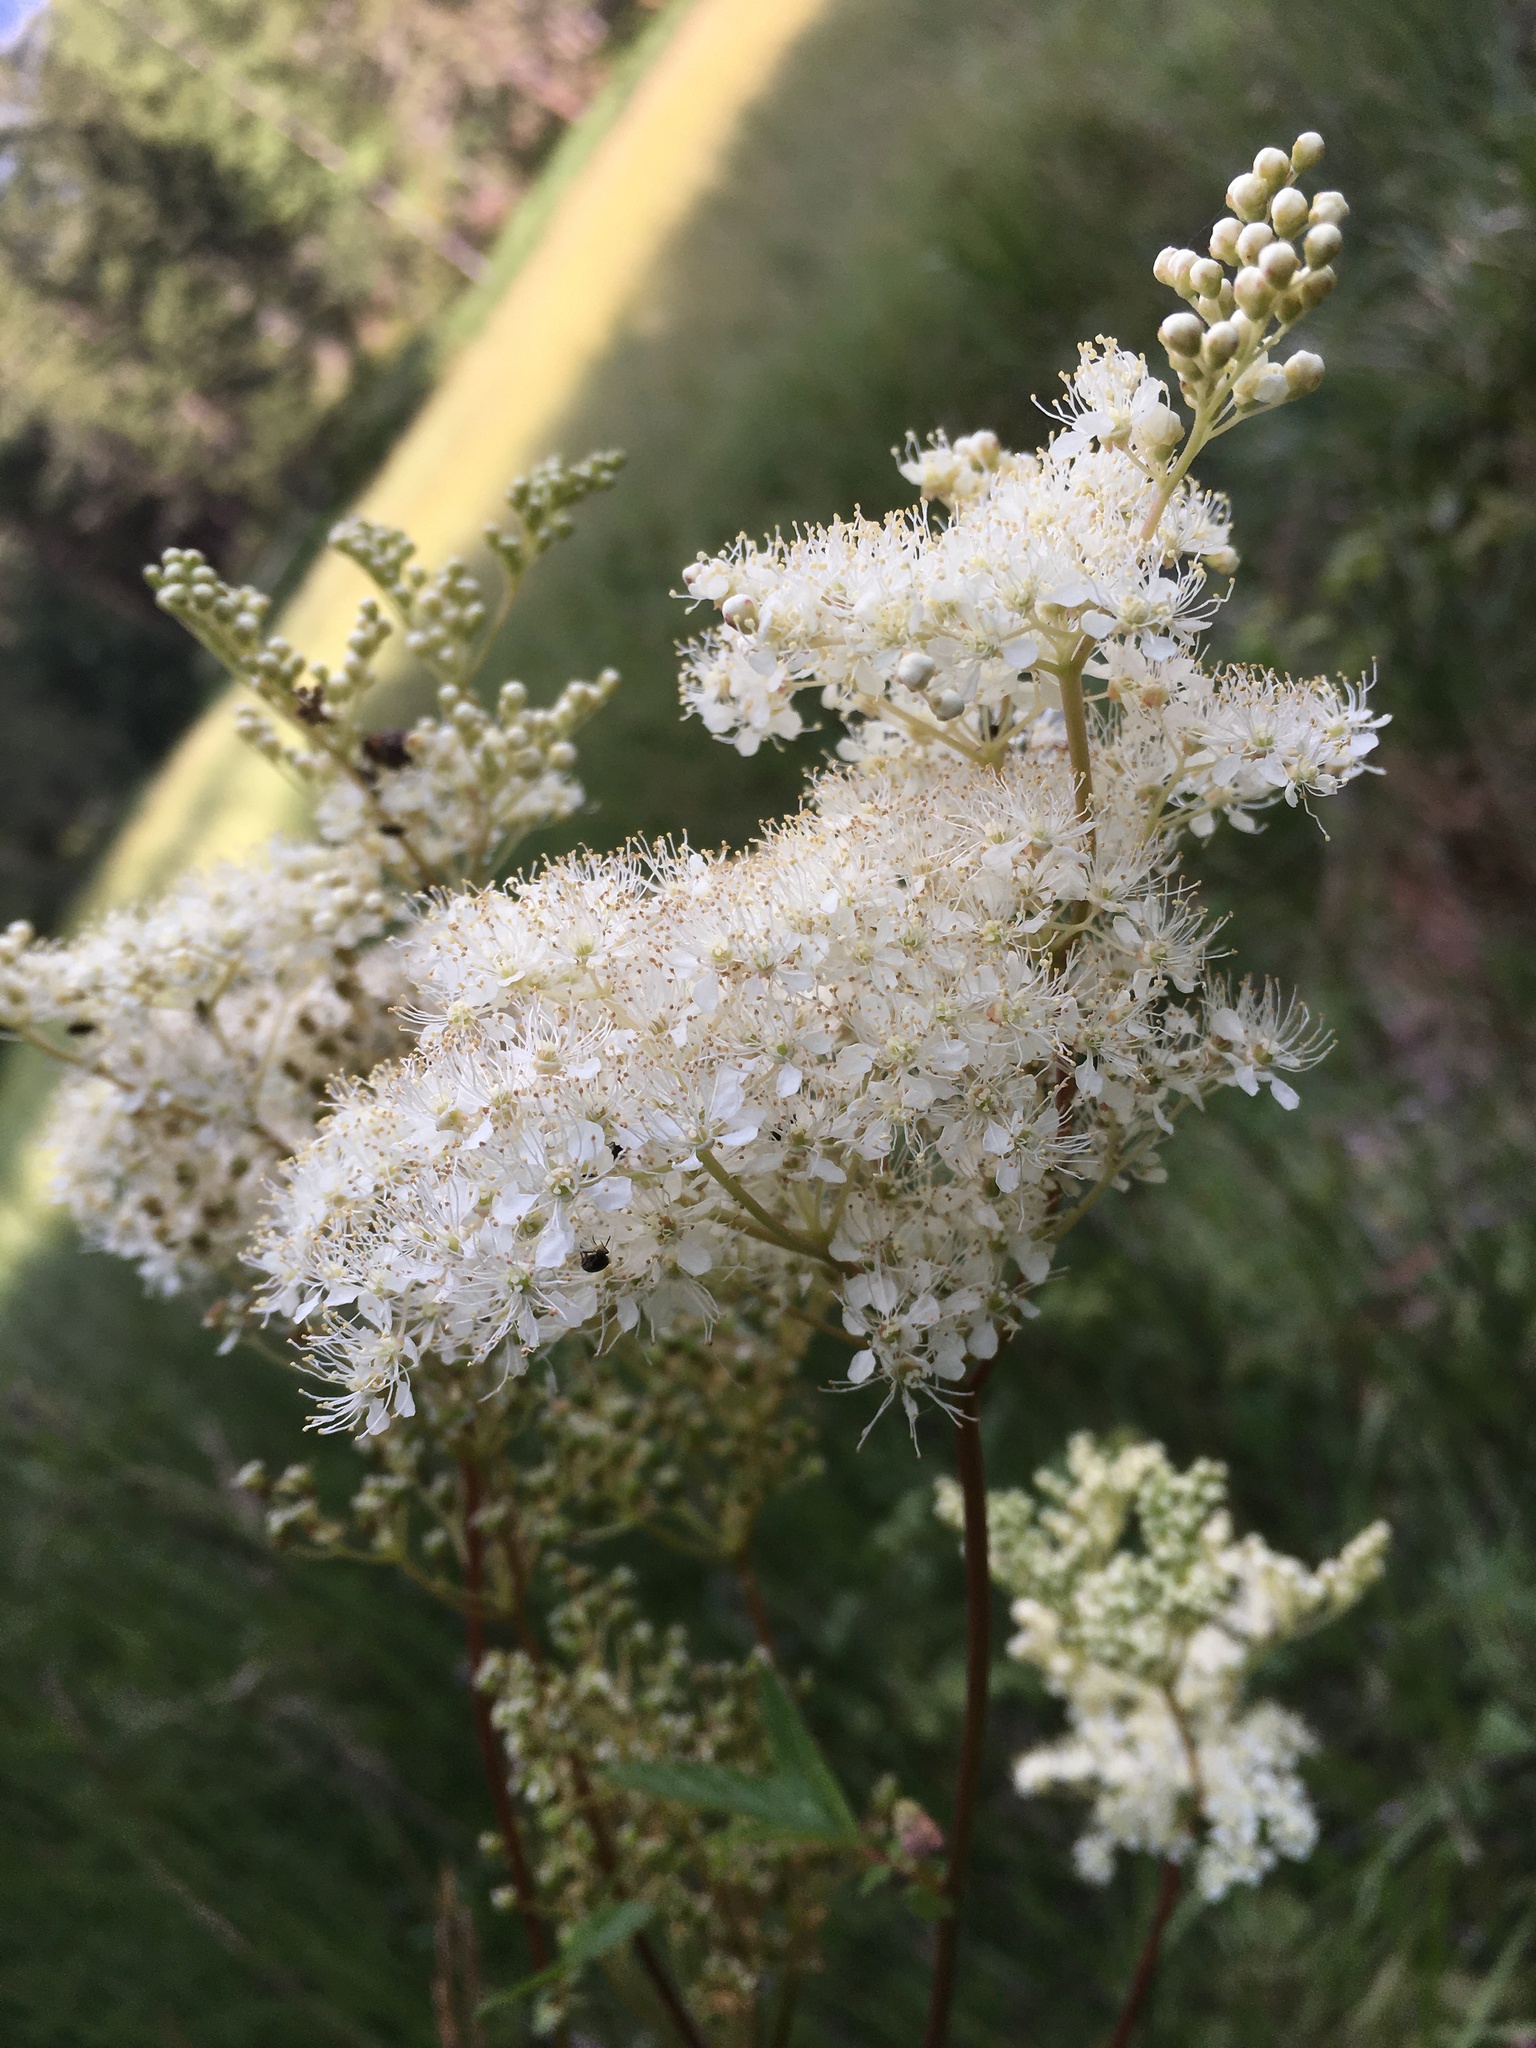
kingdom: Plantae
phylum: Tracheophyta
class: Magnoliopsida
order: Rosales
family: Rosaceae
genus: Filipendula
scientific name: Filipendula ulmaria
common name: Meadowsweet
